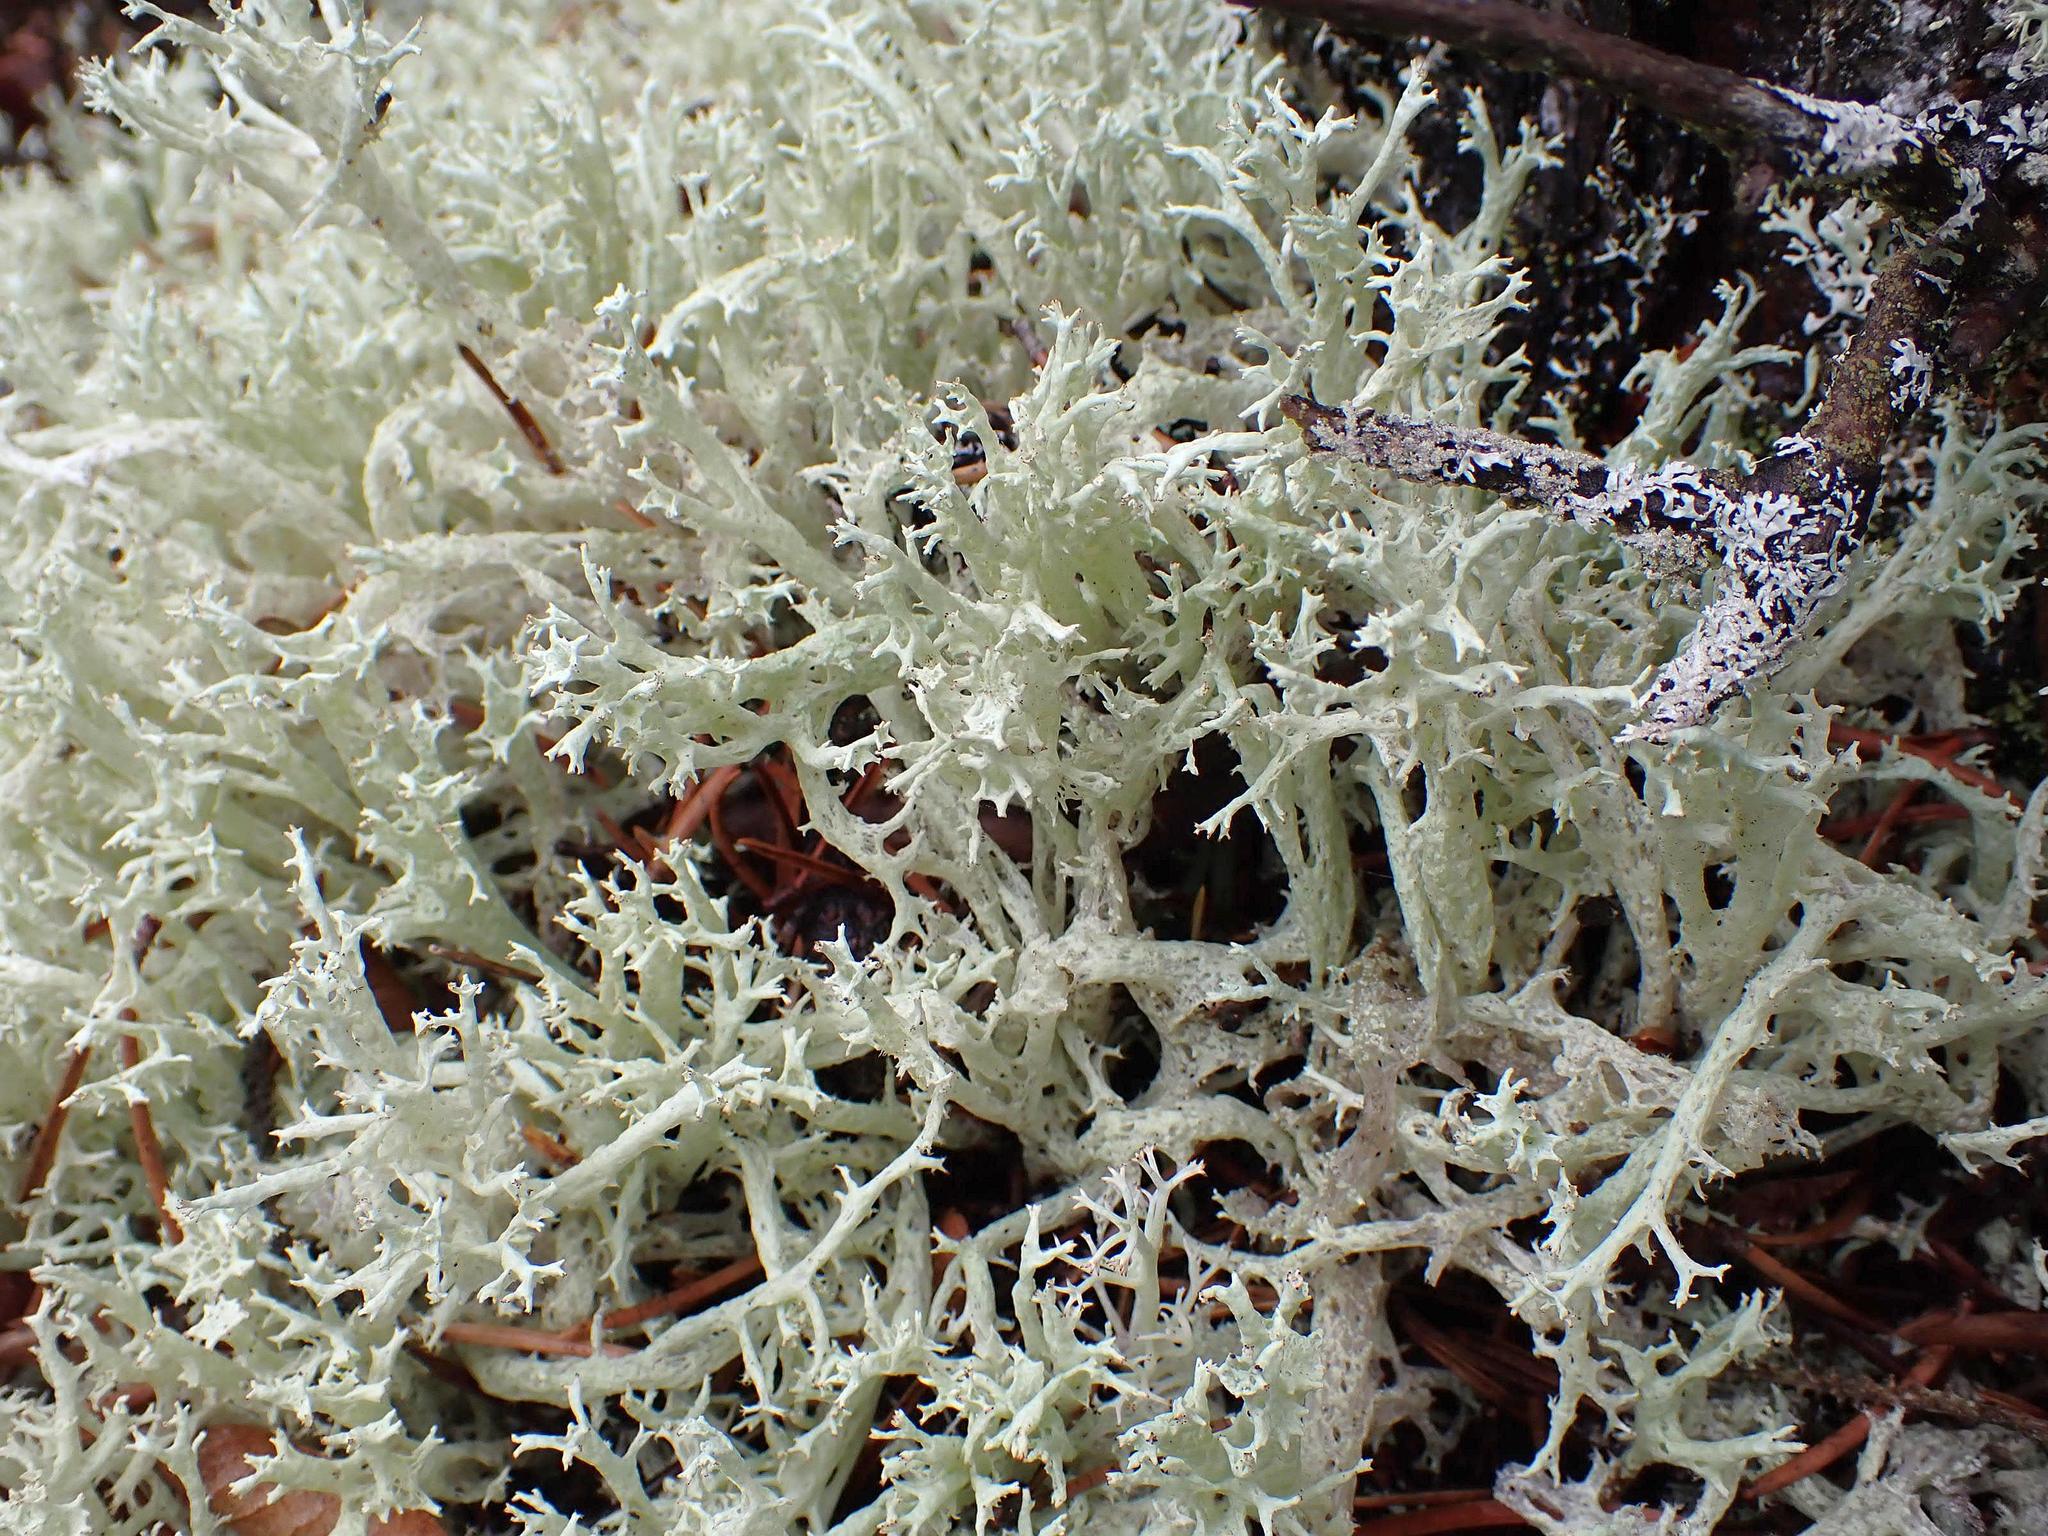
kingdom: Fungi
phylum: Ascomycota
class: Lecanoromycetes
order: Lecanorales
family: Cladoniaceae
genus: Cladonia
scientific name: Cladonia boryi
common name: Fishnet cladonia
